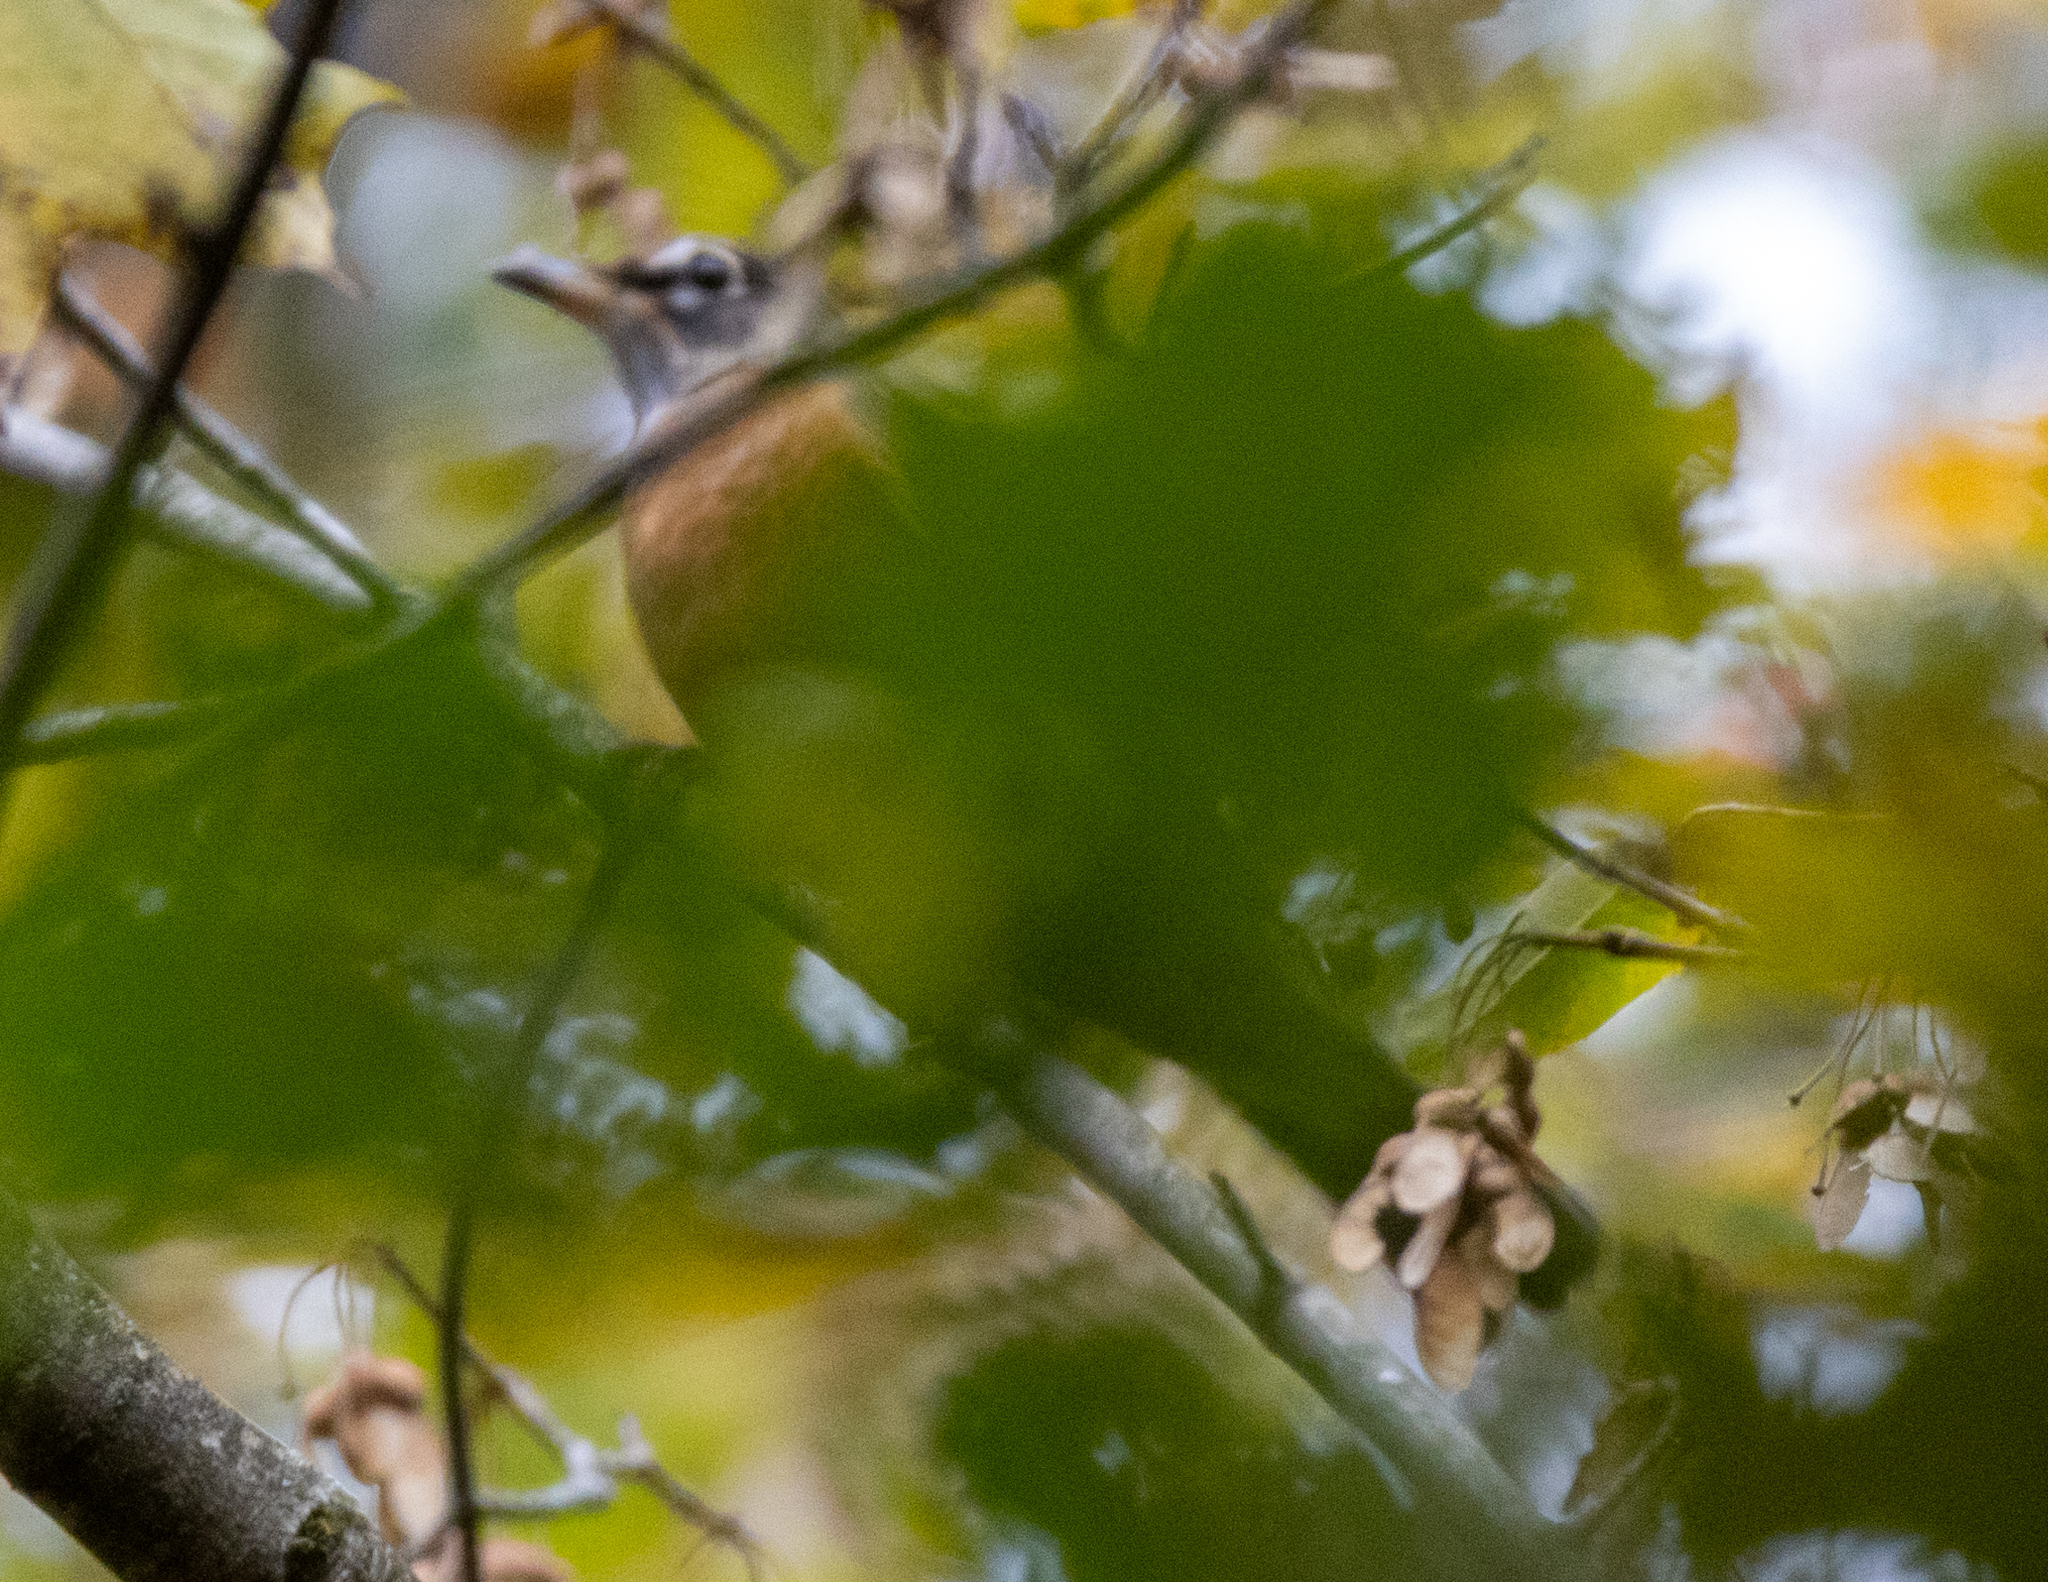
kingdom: Animalia
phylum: Chordata
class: Aves
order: Passeriformes
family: Turdidae
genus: Turdus
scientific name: Turdus migratorius
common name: American robin
